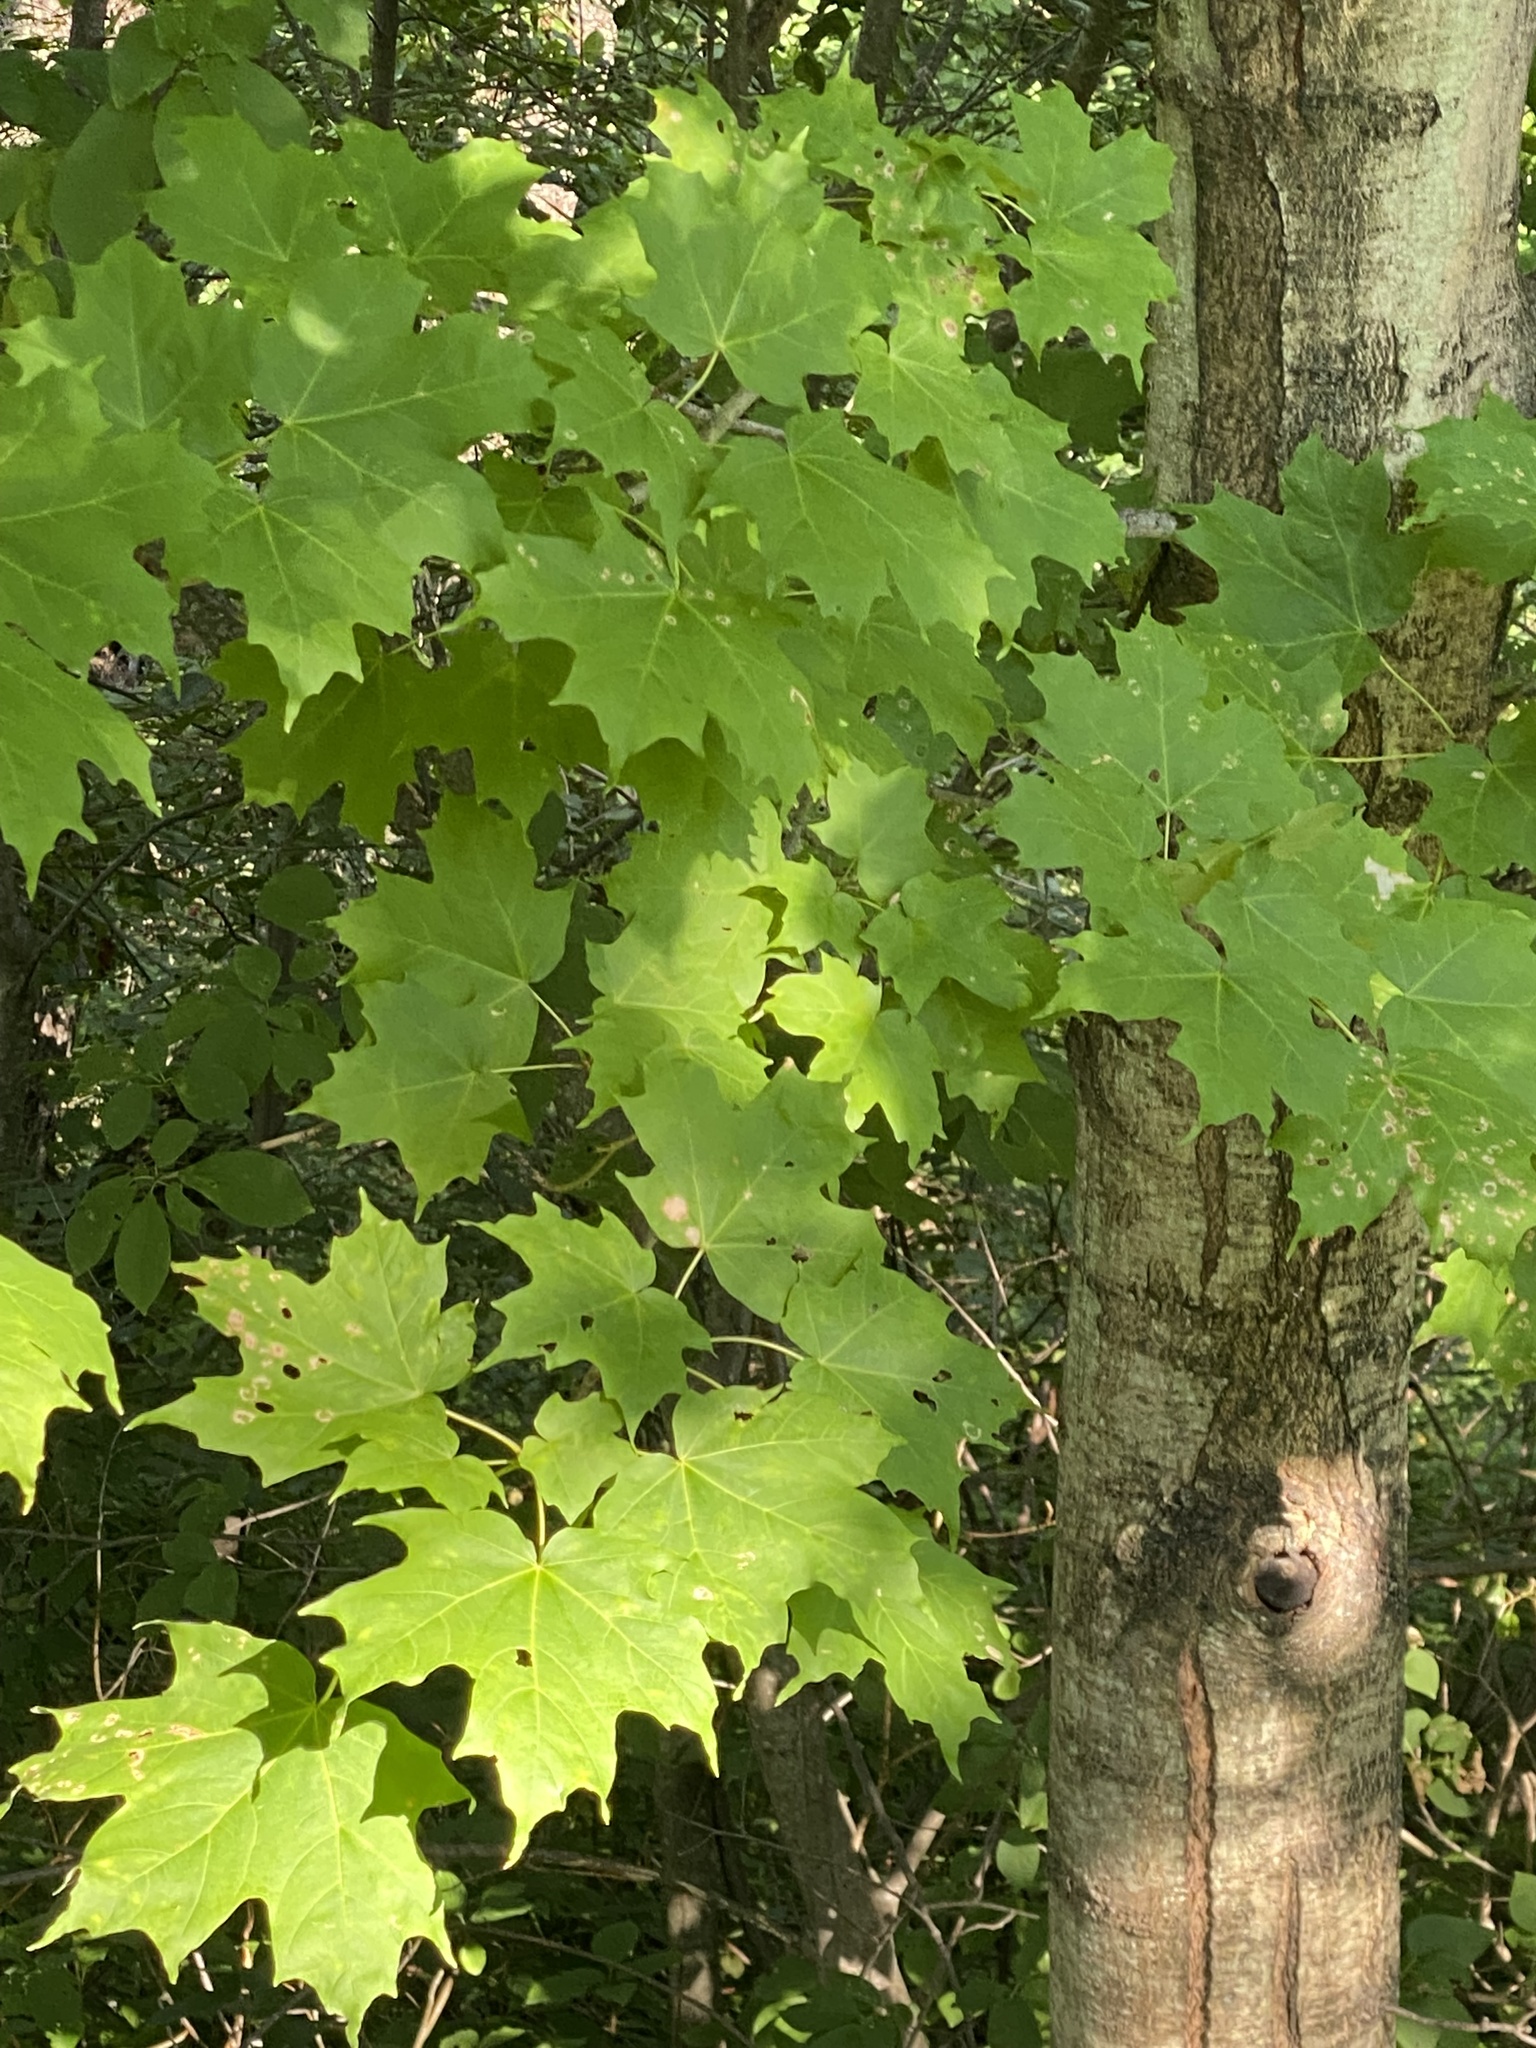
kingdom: Plantae
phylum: Tracheophyta
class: Magnoliopsida
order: Sapindales
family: Sapindaceae
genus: Acer
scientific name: Acer saccharum
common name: Sugar maple
